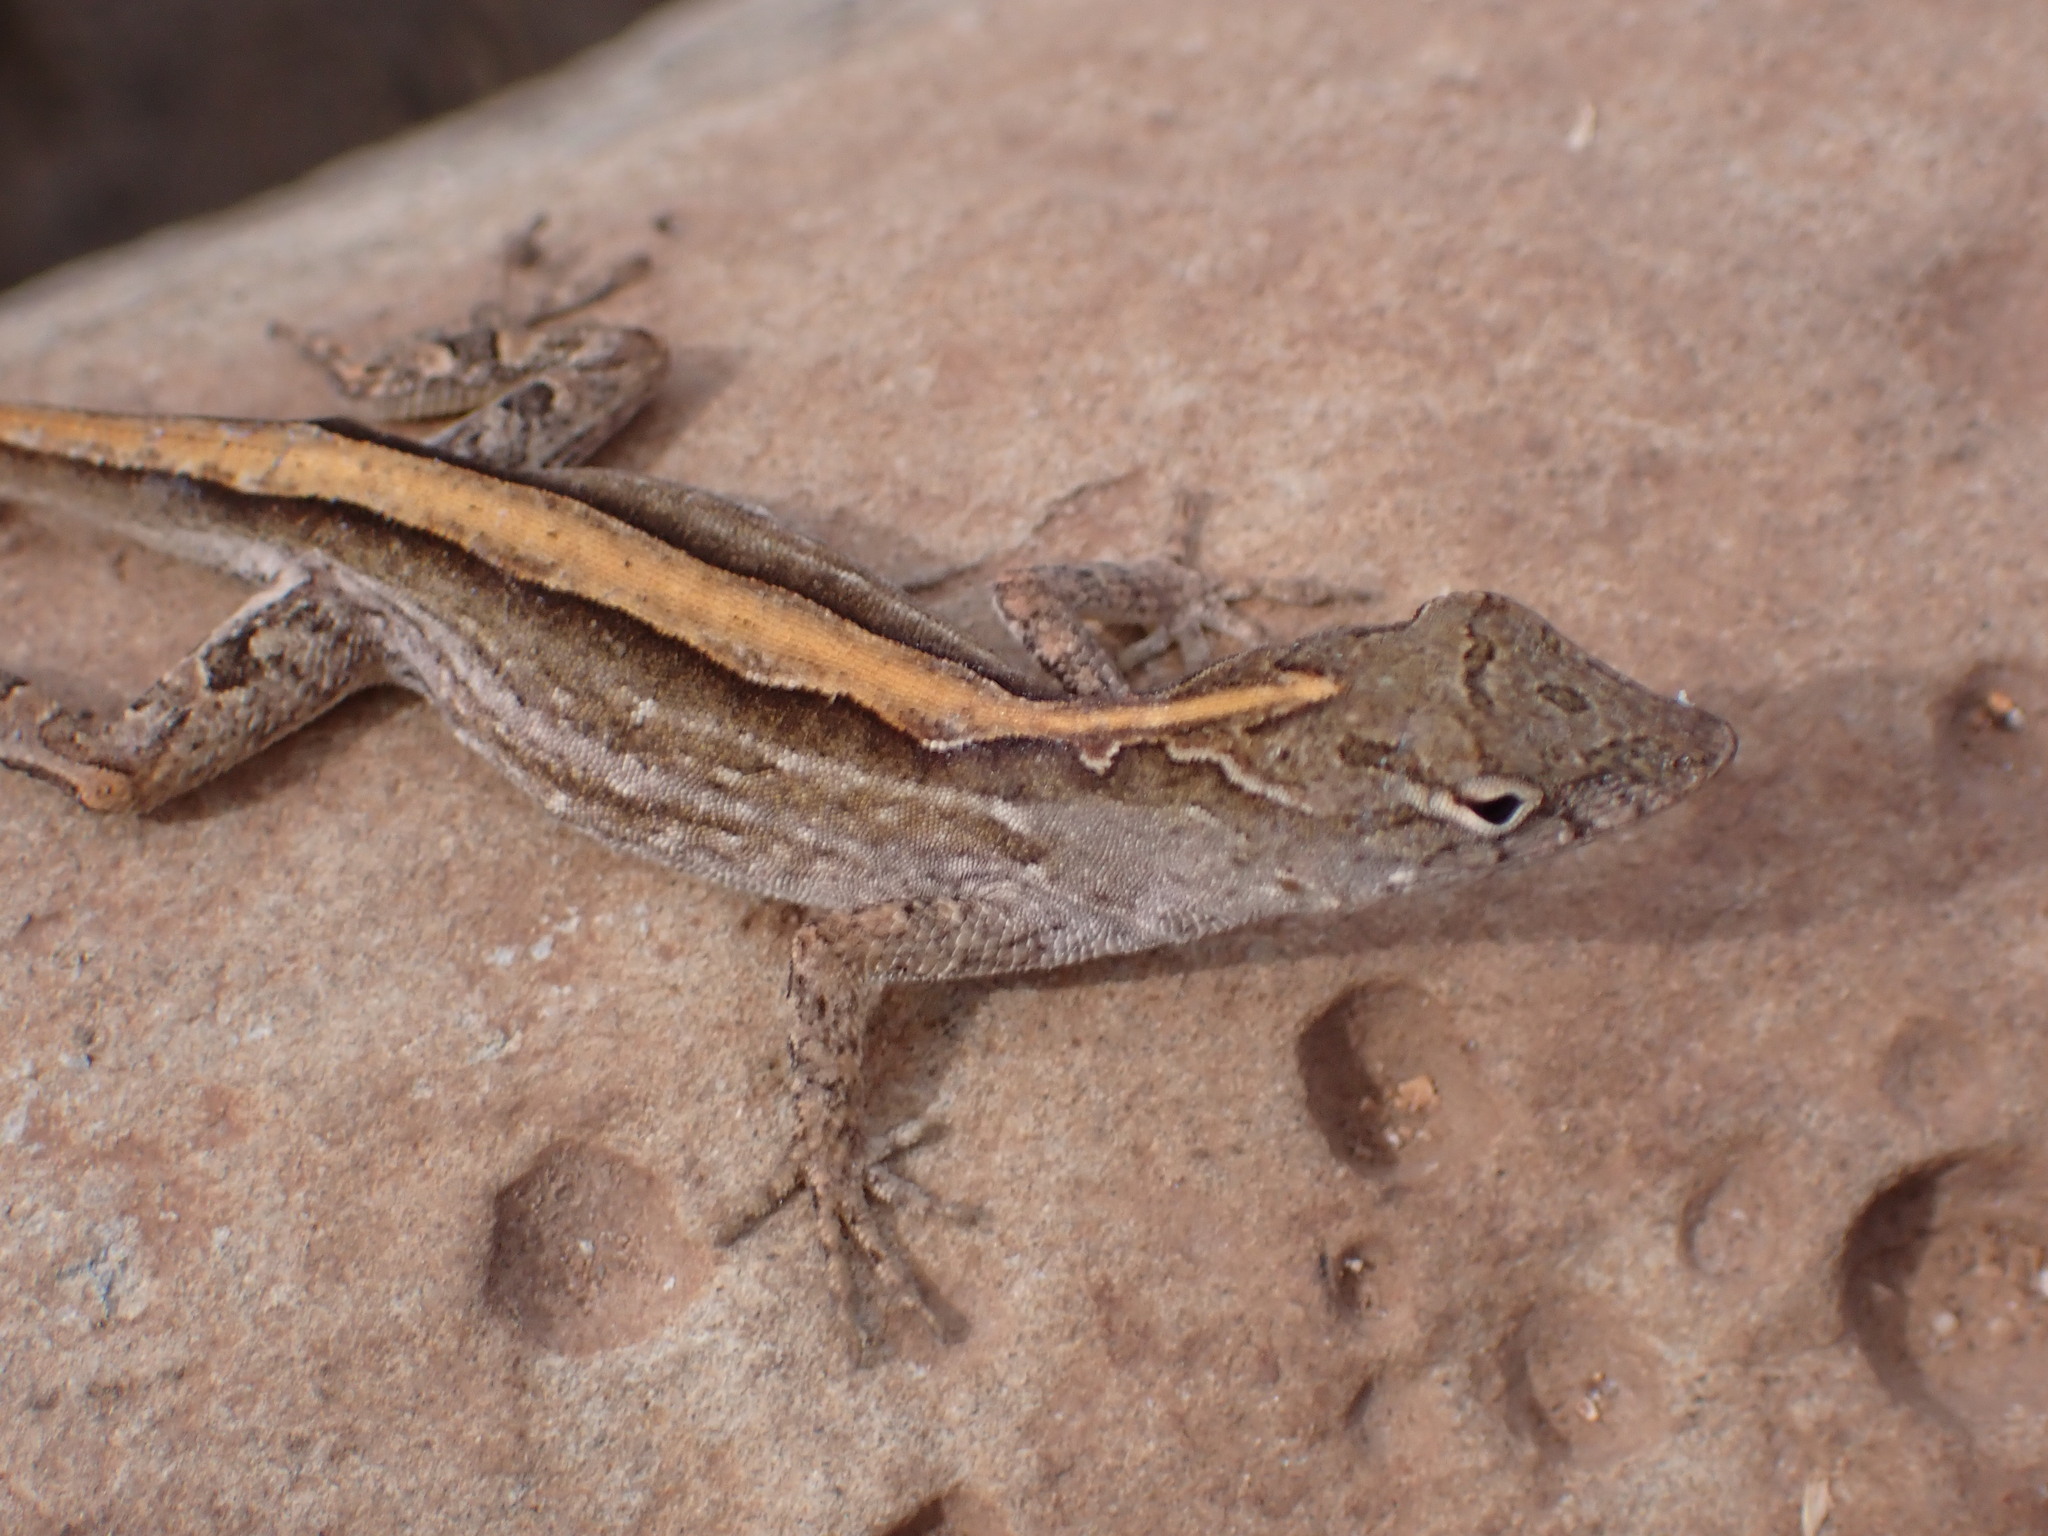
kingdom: Animalia
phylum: Chordata
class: Squamata
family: Dactyloidae
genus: Anolis
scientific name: Anolis sagrei
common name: Brown anole
